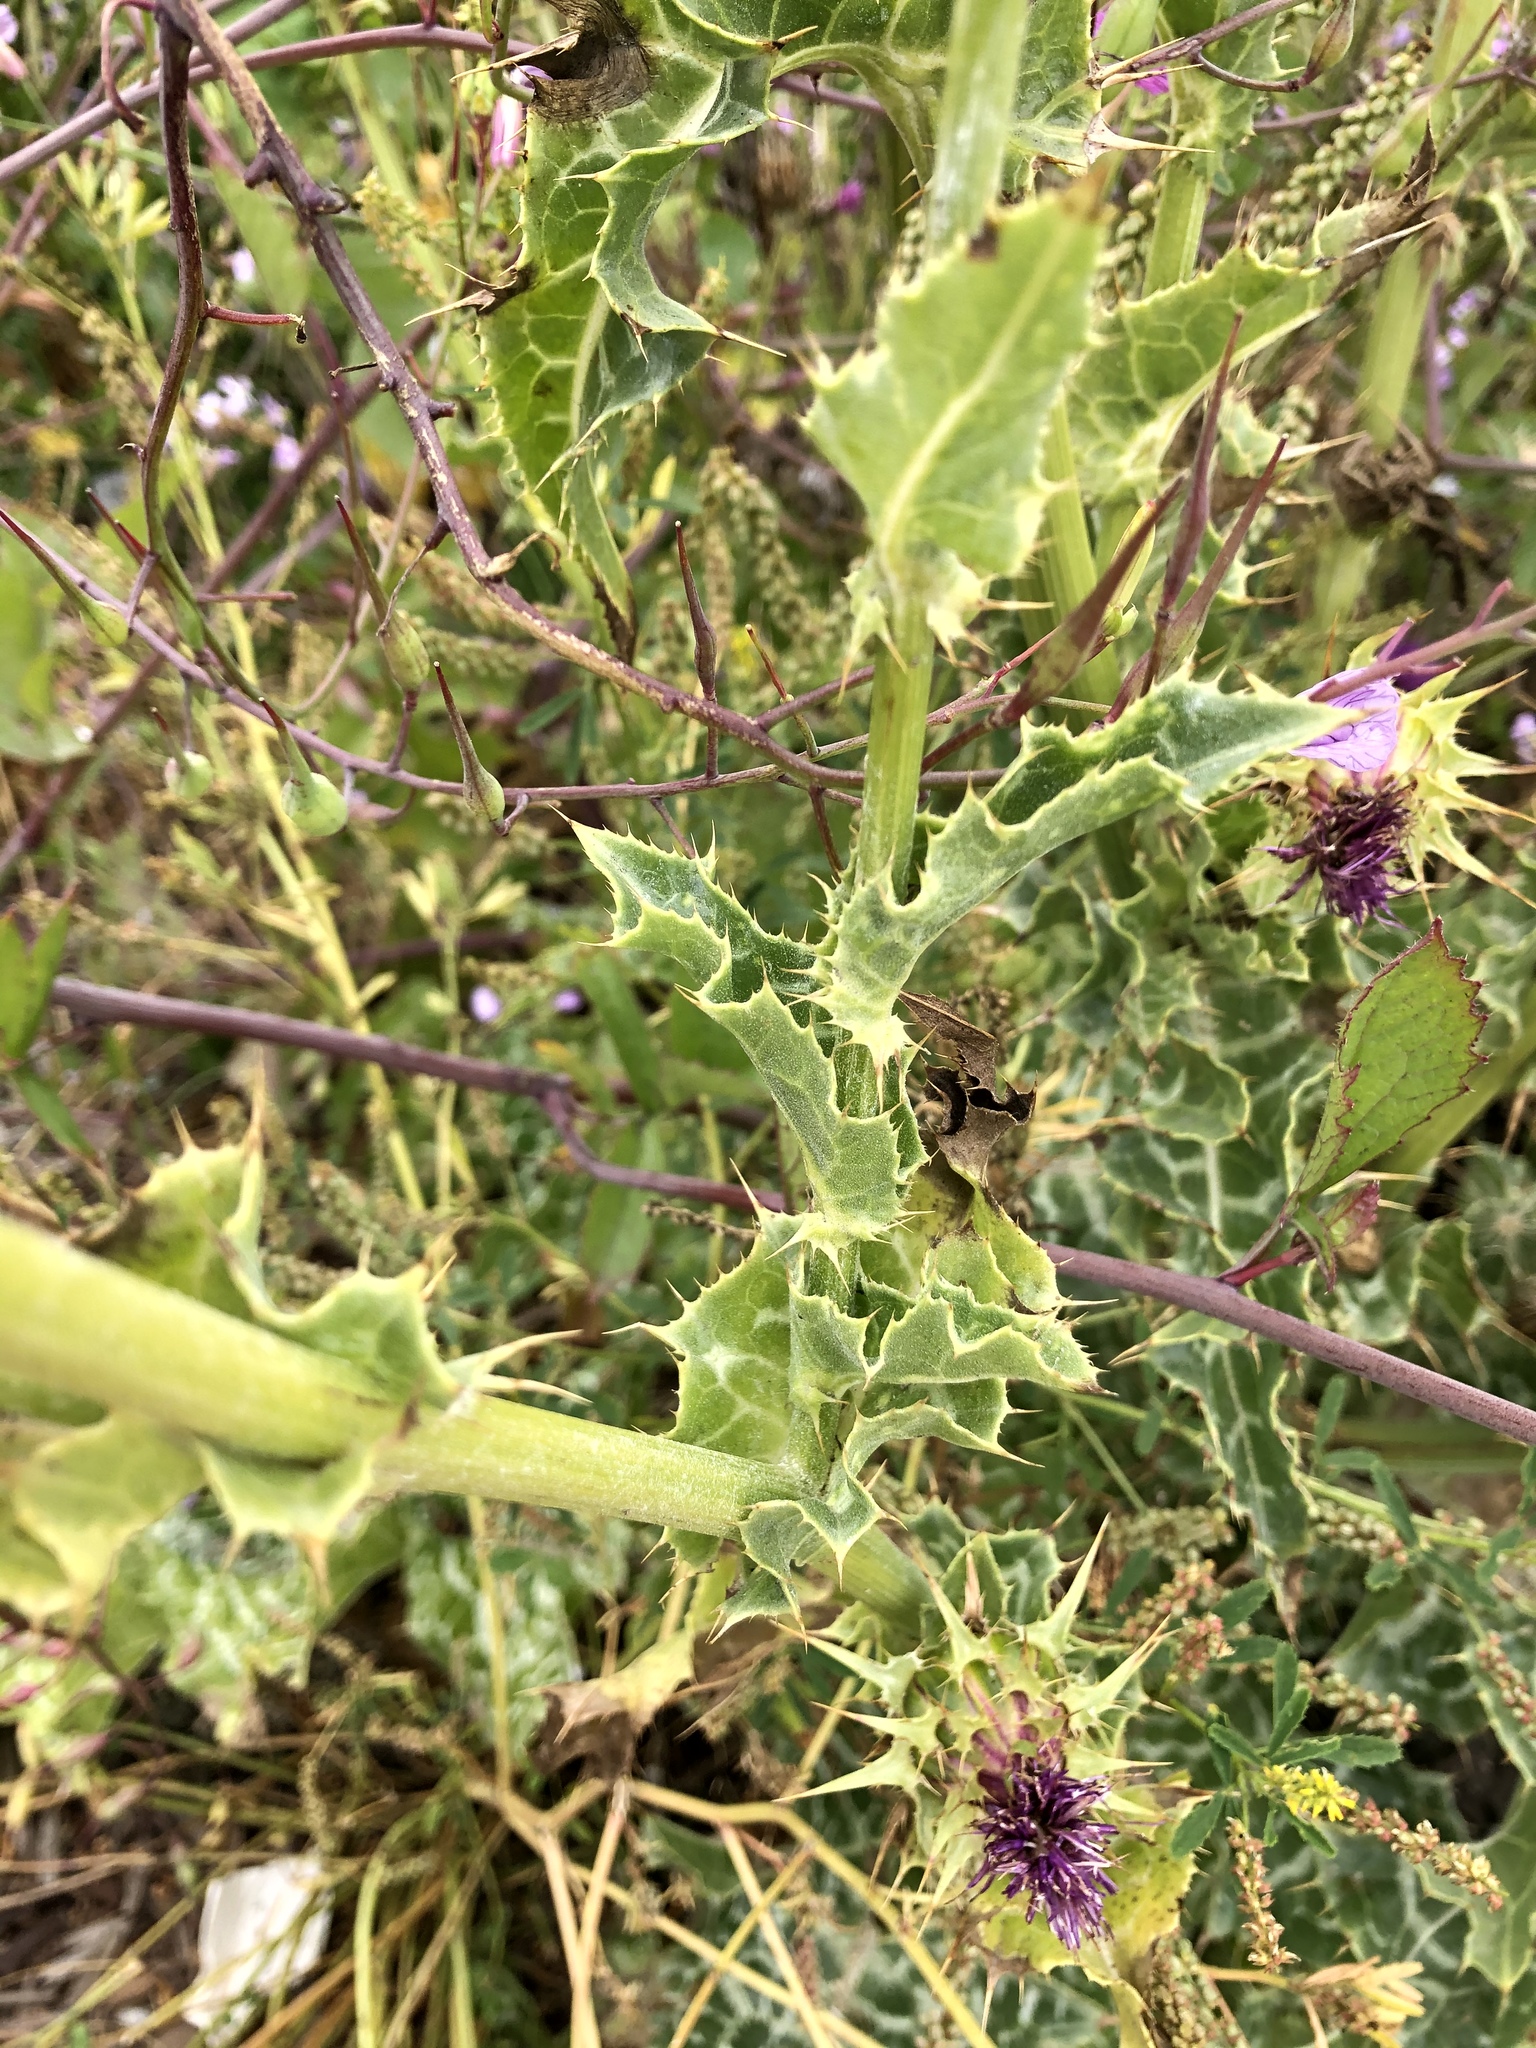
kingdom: Plantae
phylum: Tracheophyta
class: Magnoliopsida
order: Asterales
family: Asteraceae
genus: Silybum
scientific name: Silybum marianum
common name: Milk thistle
